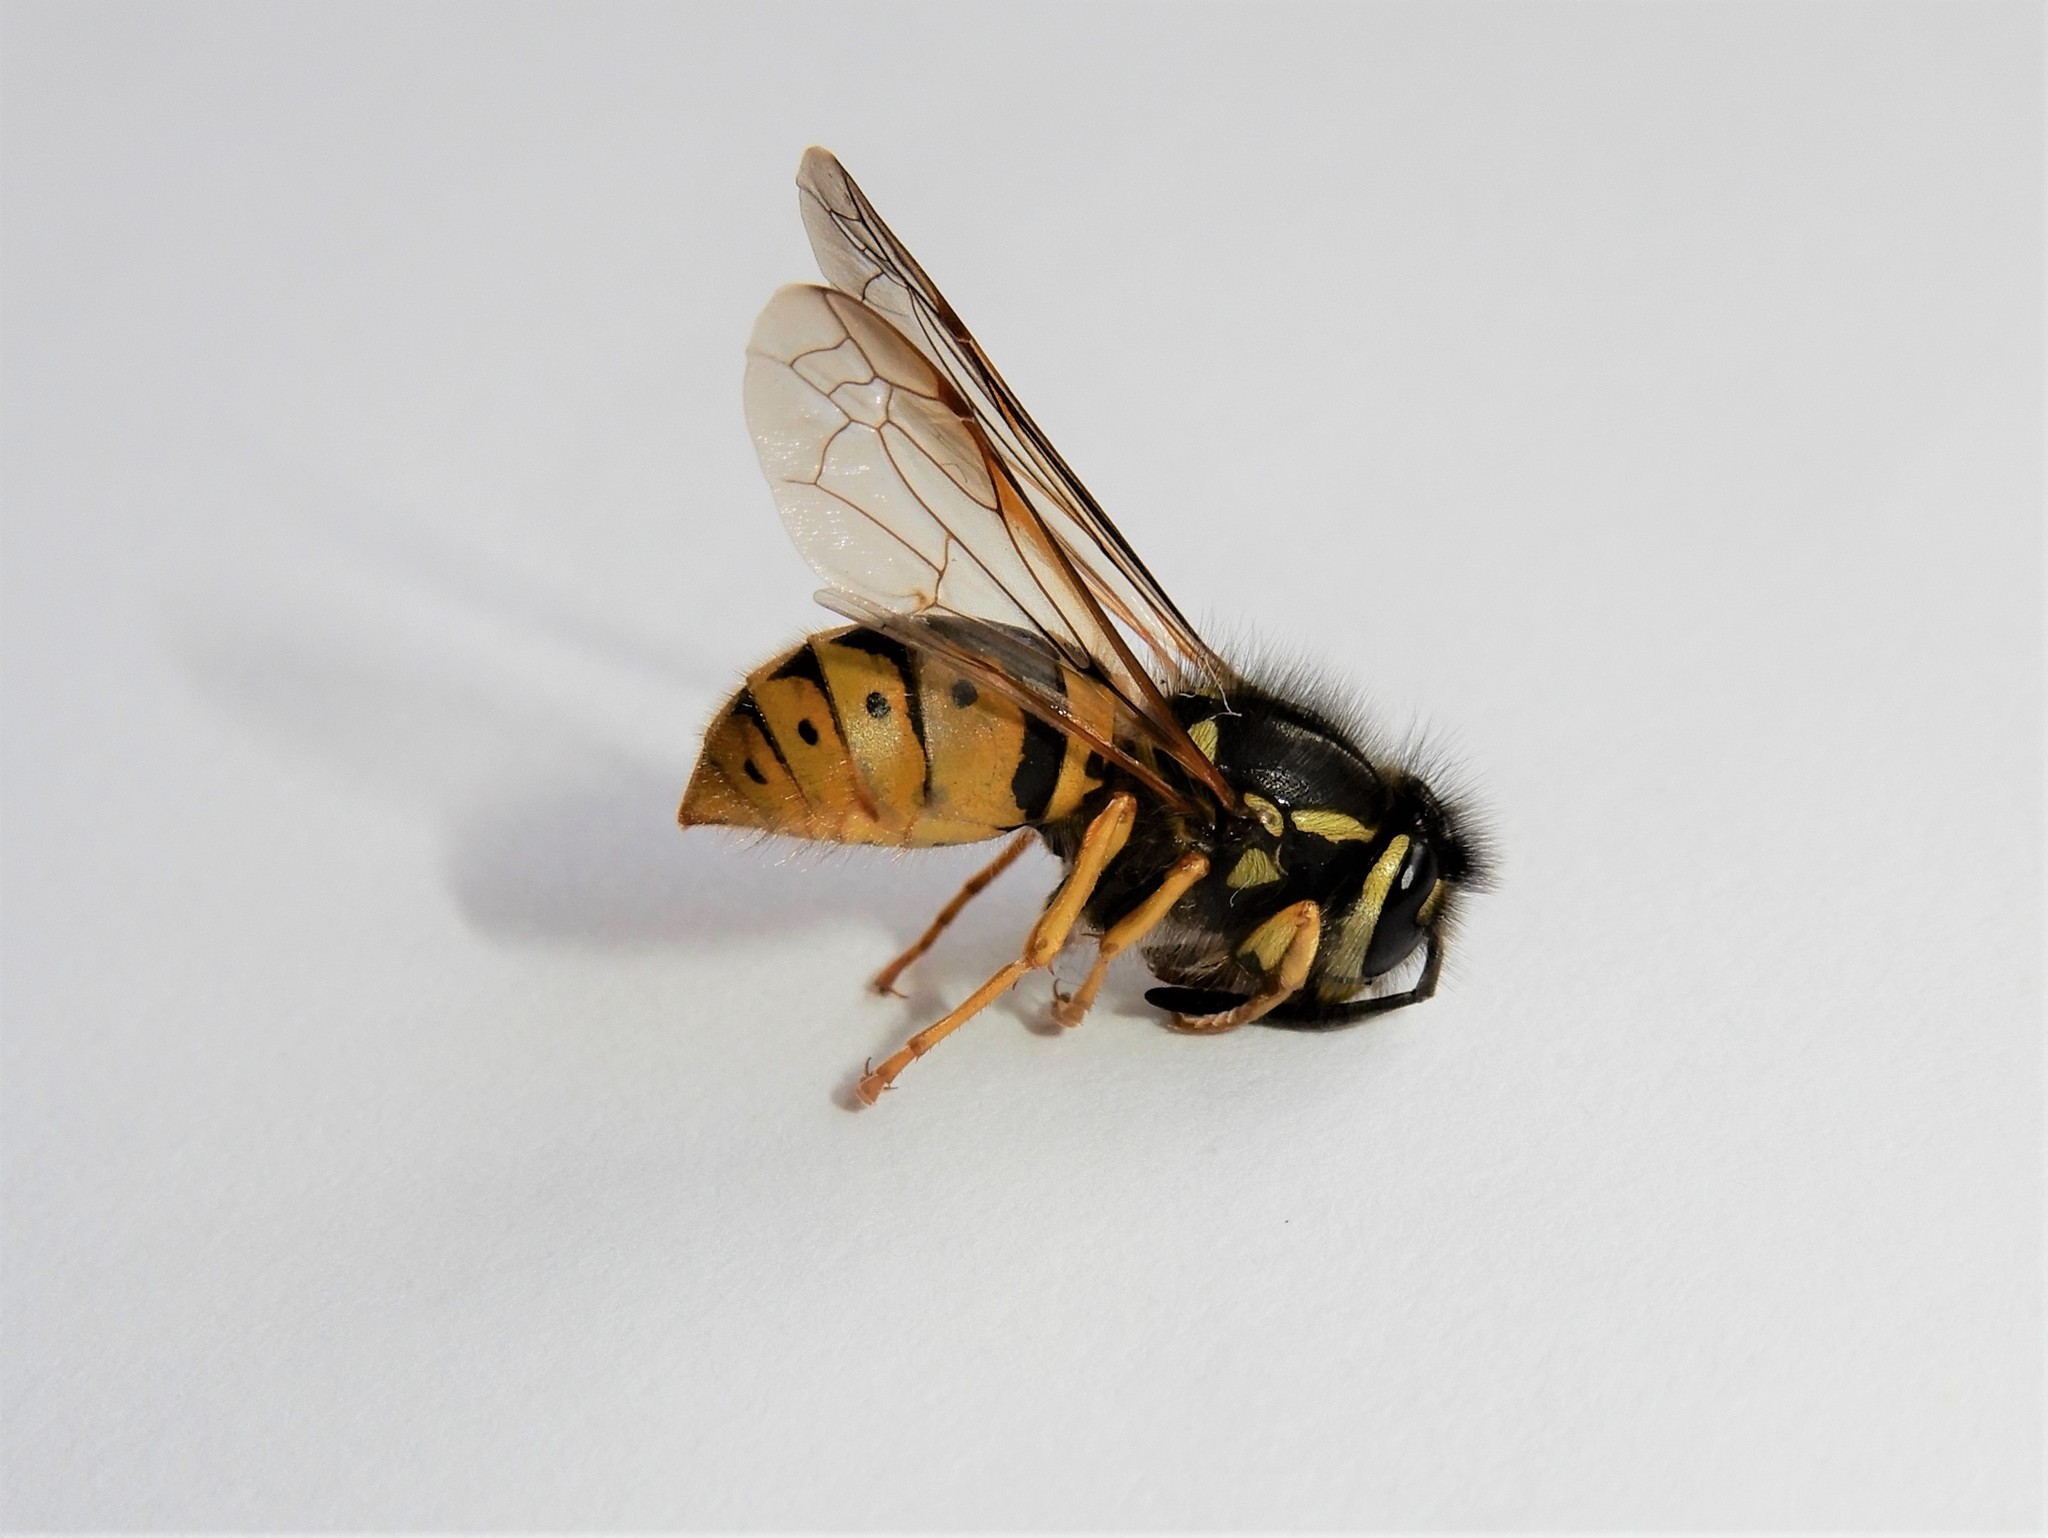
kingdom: Animalia
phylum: Arthropoda
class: Insecta
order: Hymenoptera
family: Vespidae
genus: Vespula
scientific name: Vespula germanica
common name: German wasp
